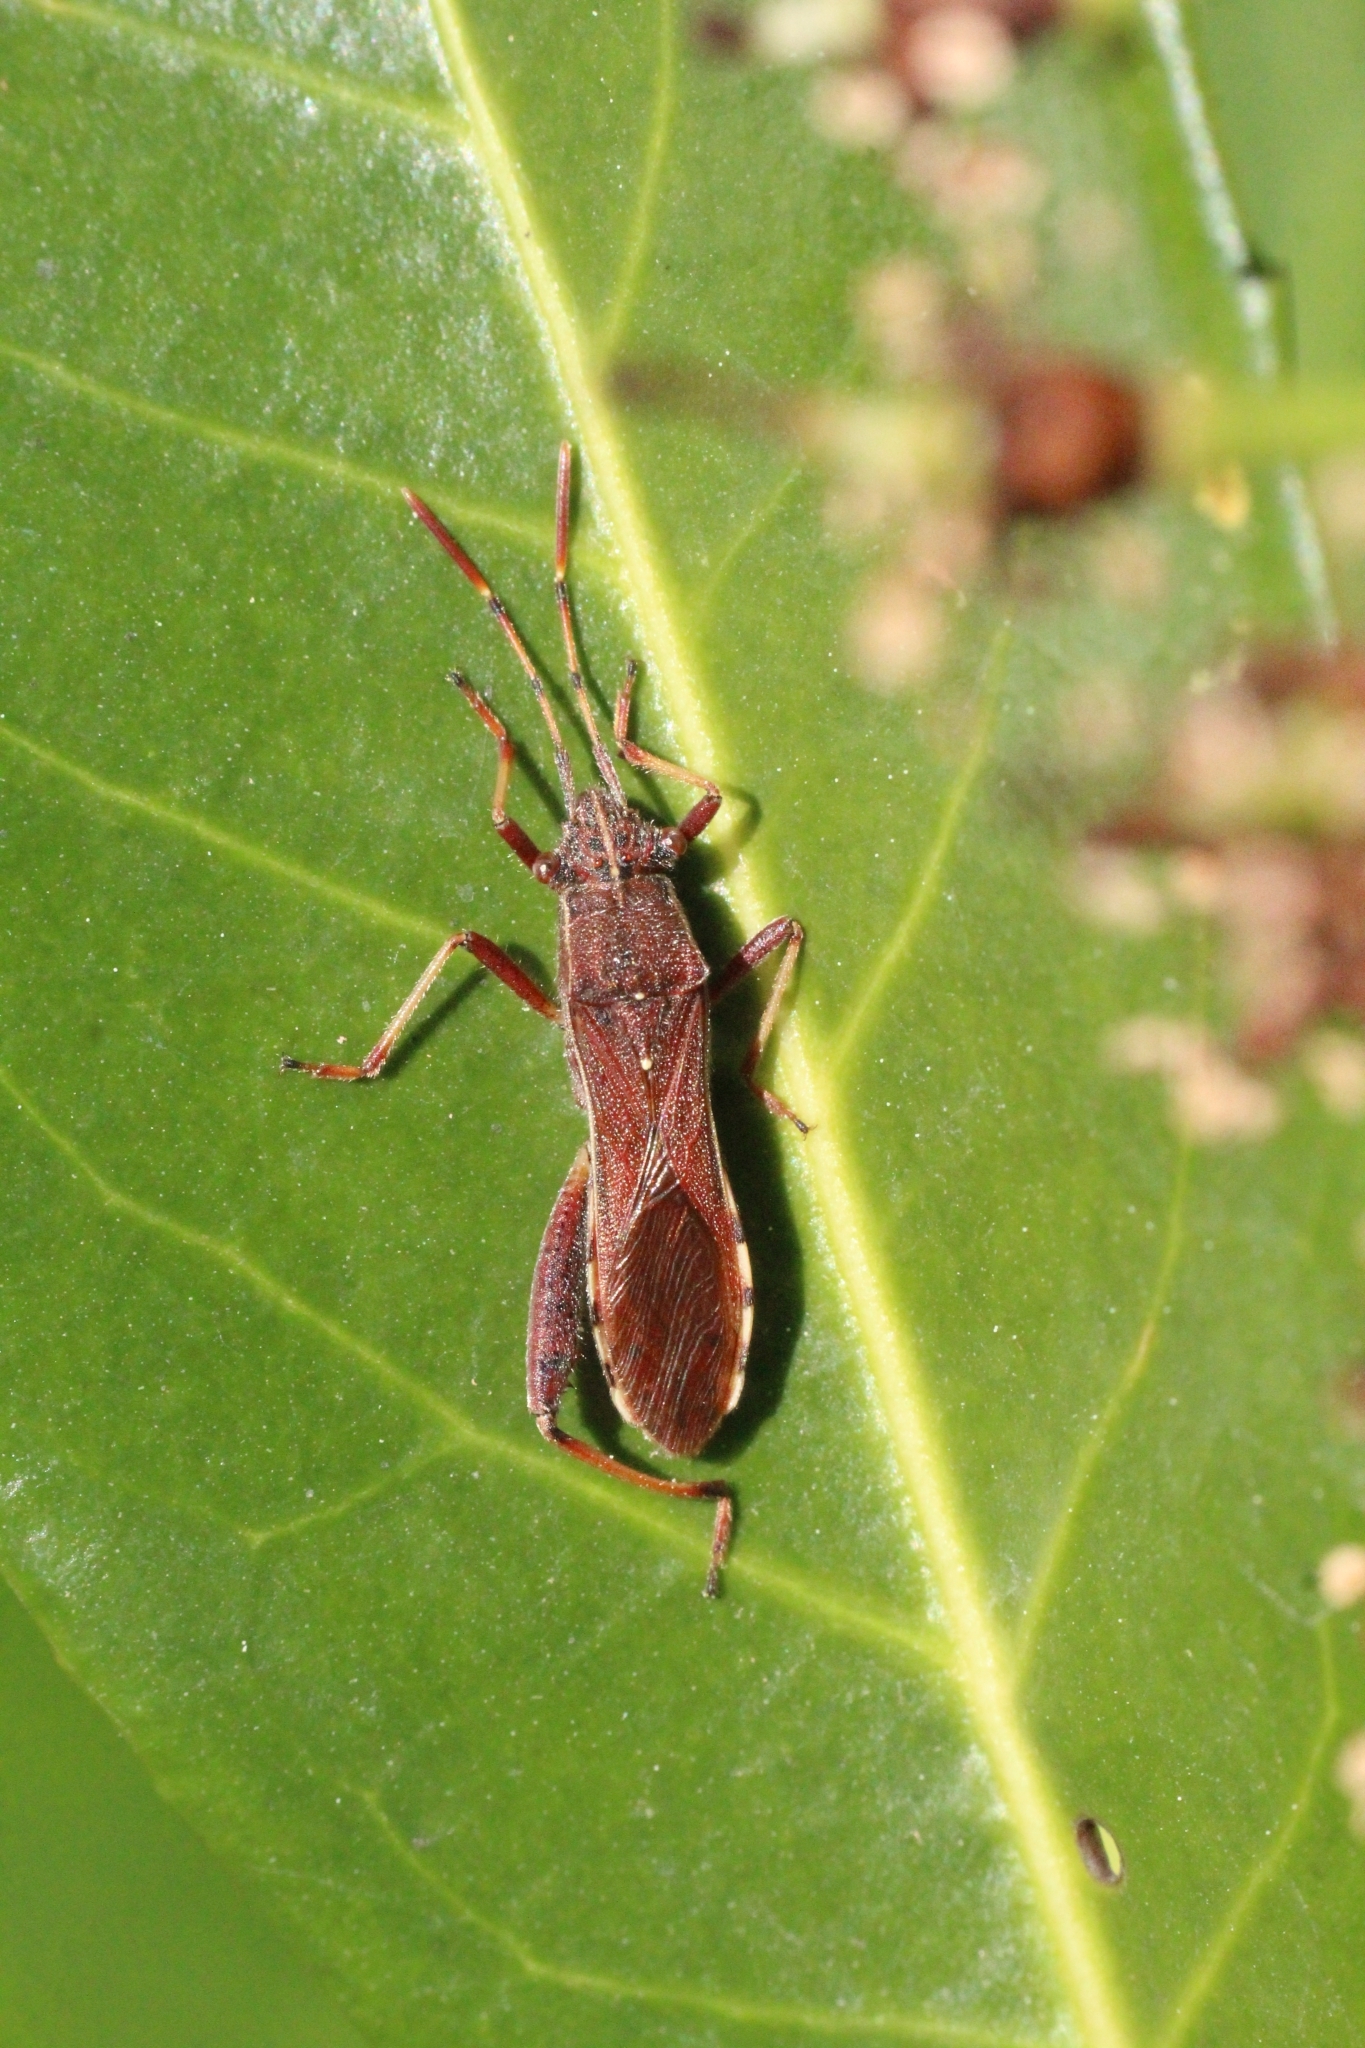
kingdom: Animalia
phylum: Arthropoda
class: Insecta
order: Hemiptera
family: Alydidae
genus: Camptopus
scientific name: Camptopus lateralis
